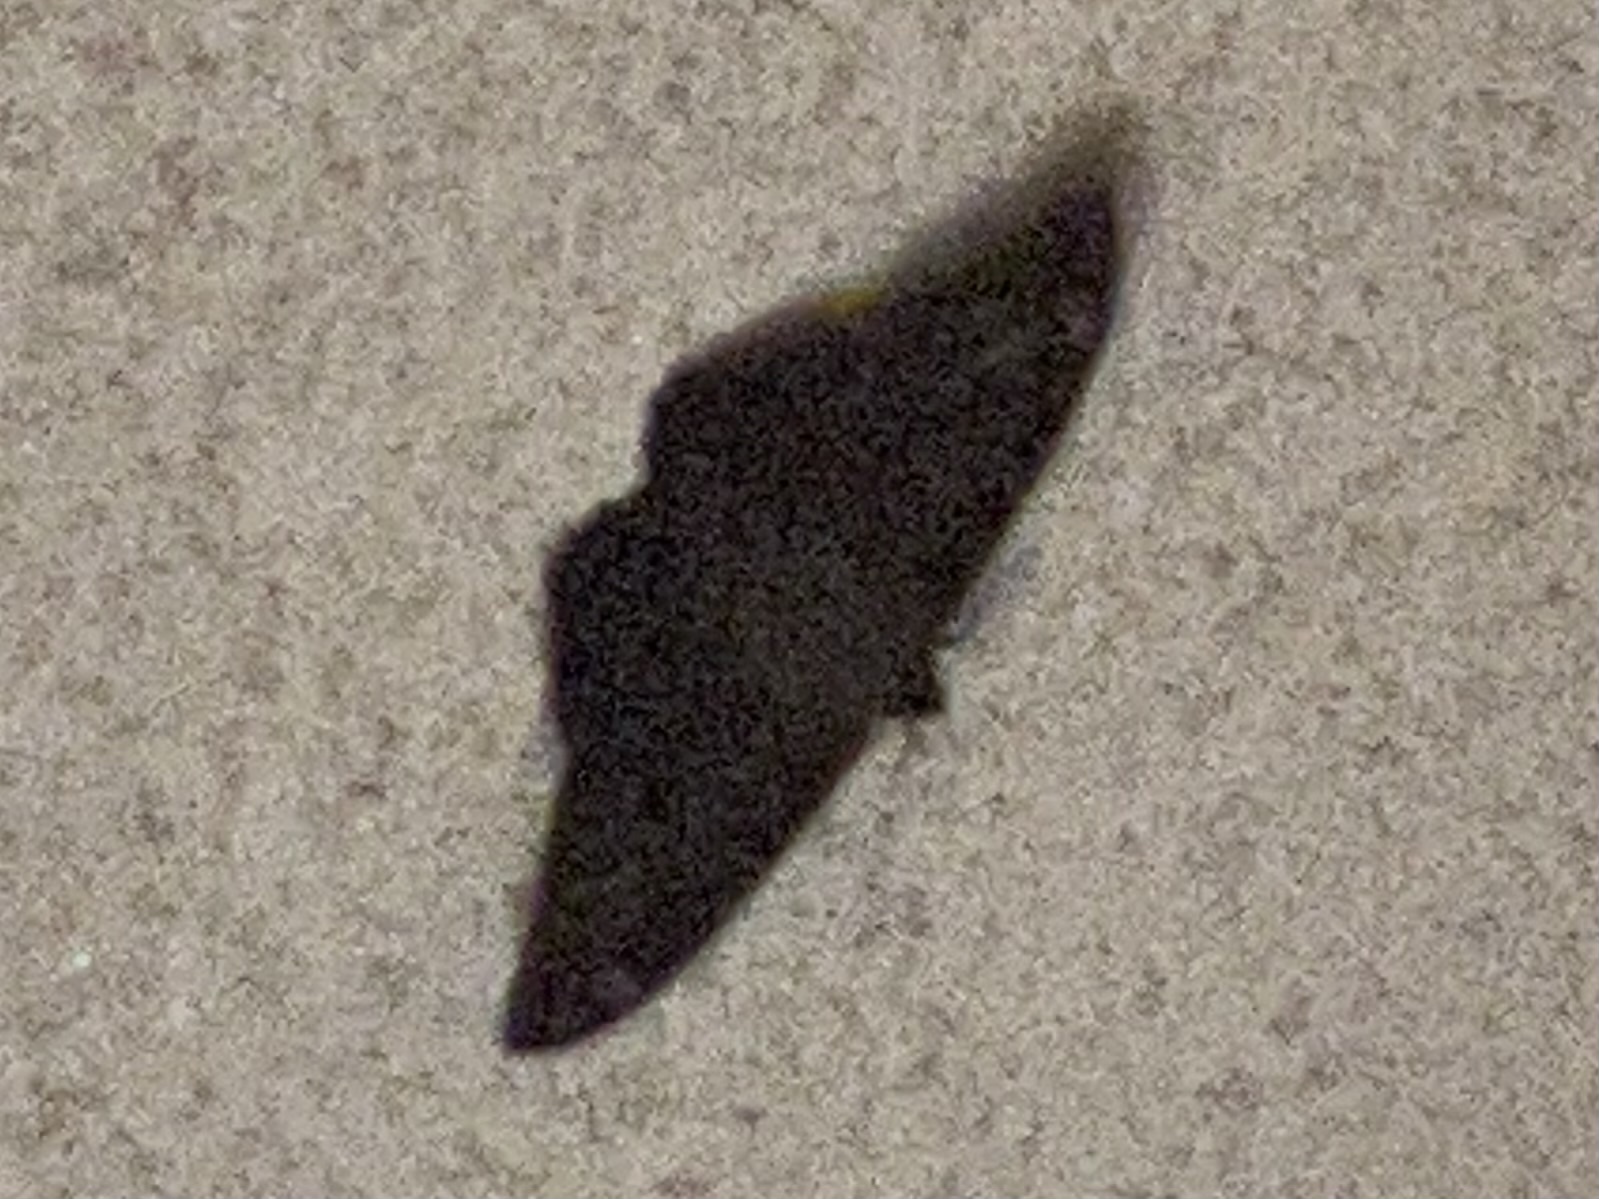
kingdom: Animalia
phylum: Arthropoda
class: Insecta
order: Lepidoptera
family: Erebidae
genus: Ascalapha
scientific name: Ascalapha odorata
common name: Black witch
